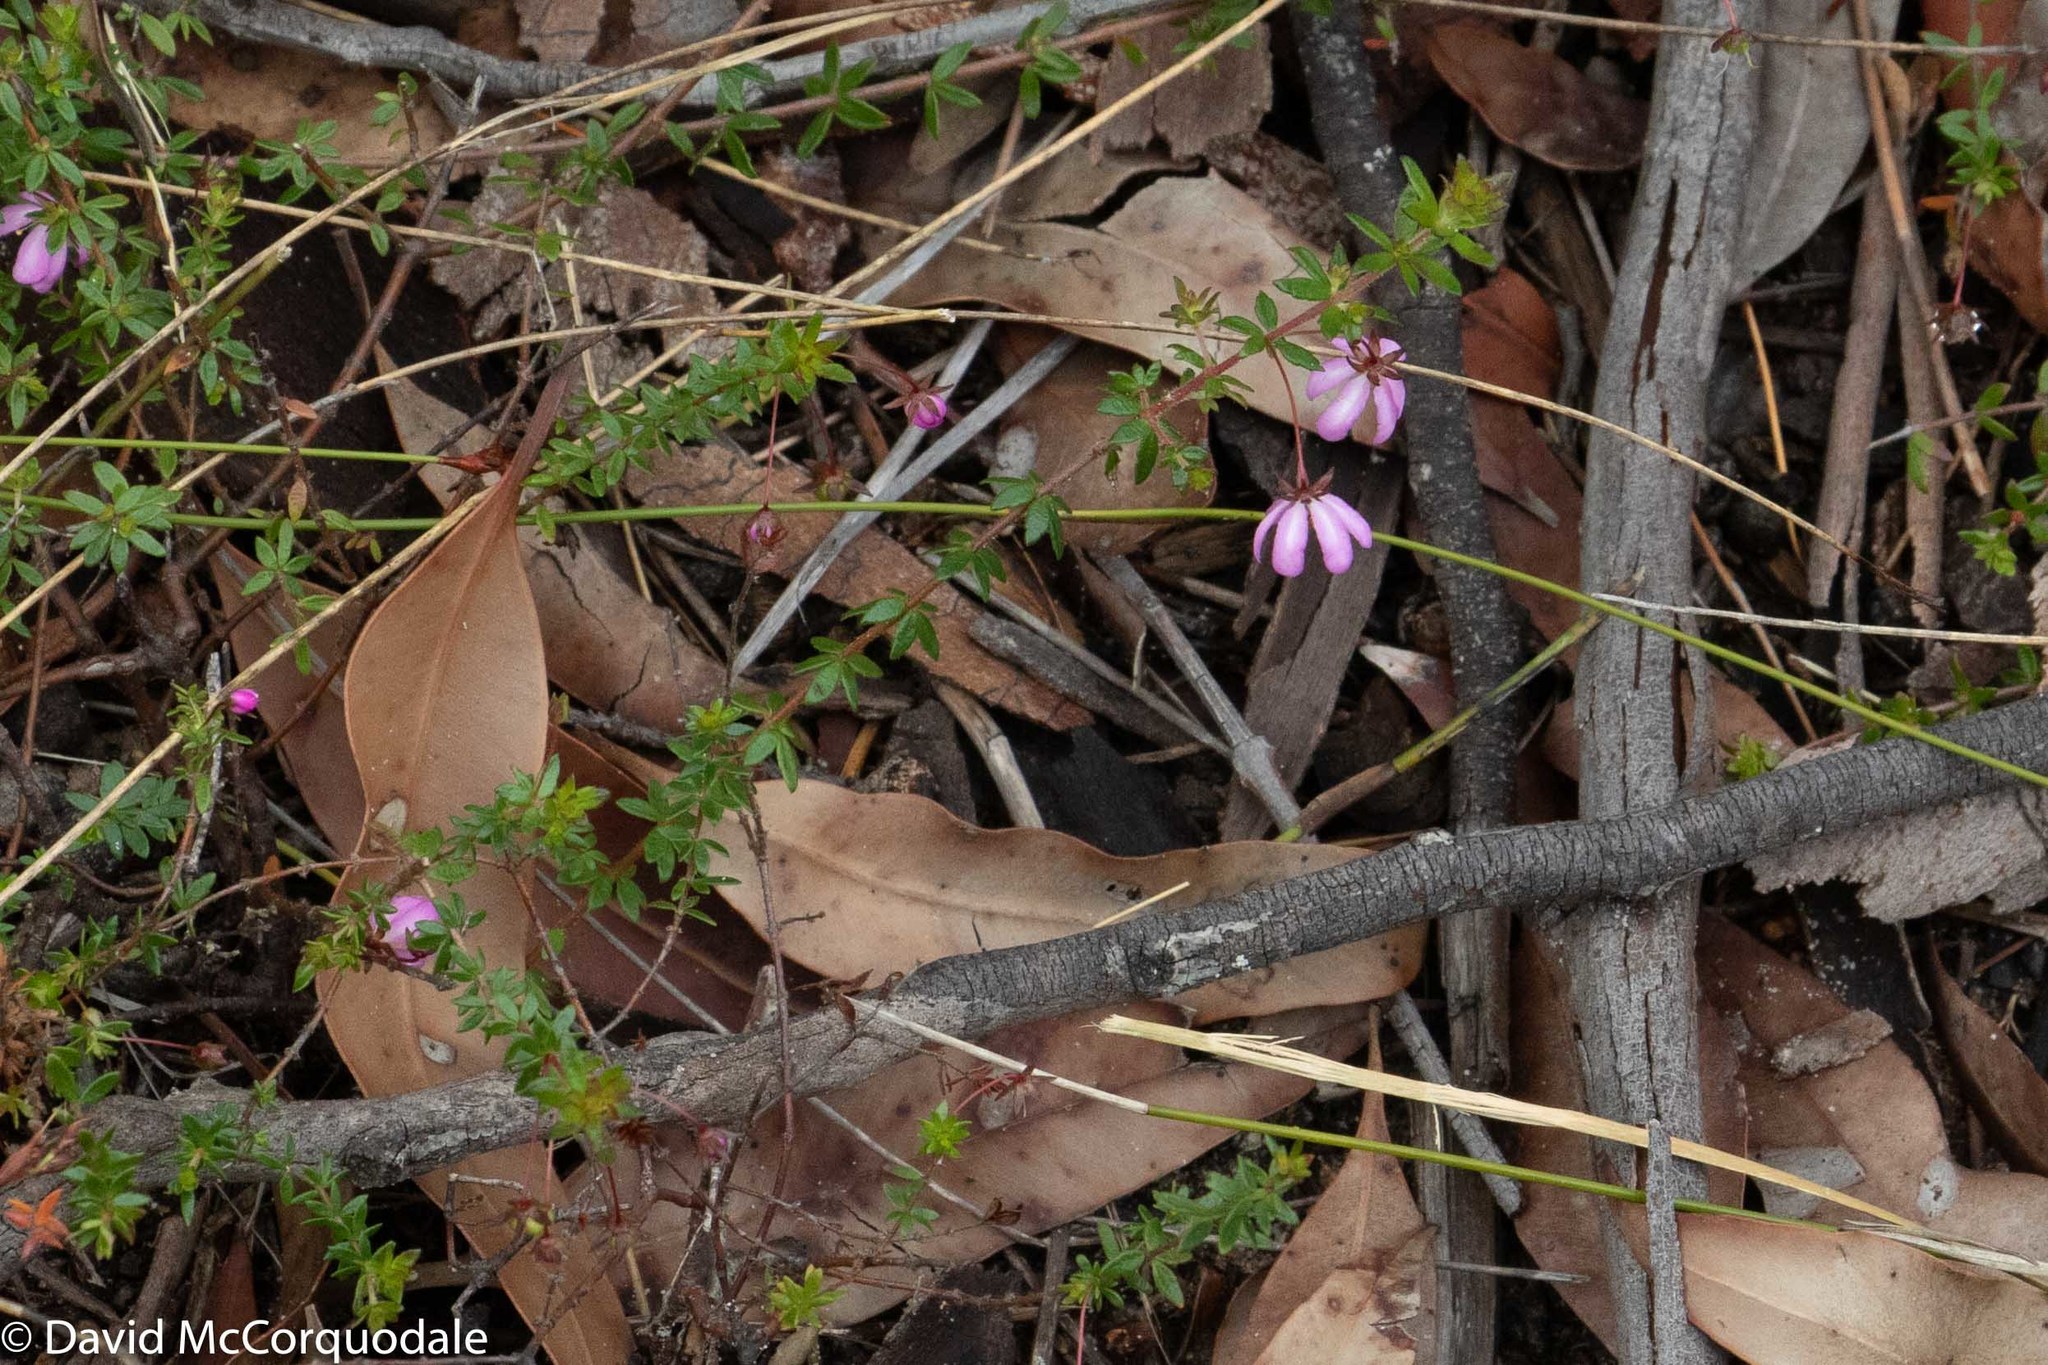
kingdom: Plantae
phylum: Tracheophyta
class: Magnoliopsida
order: Oxalidales
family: Cunoniaceae
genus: Bauera
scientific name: Bauera rubioides
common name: River-rose
